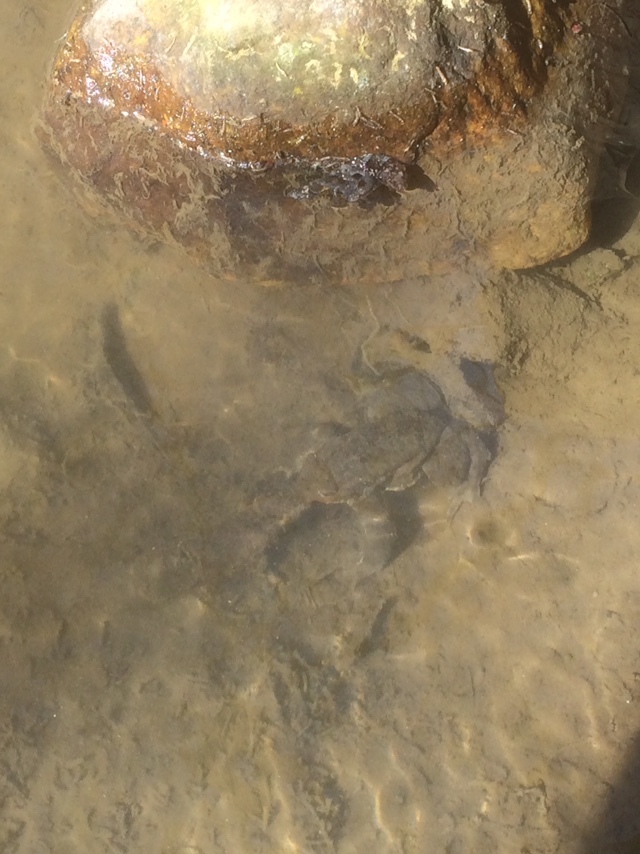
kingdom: Animalia
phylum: Chordata
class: Amphibia
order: Anura
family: Bufonidae
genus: Bufo
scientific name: Bufo bufo
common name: Common toad
